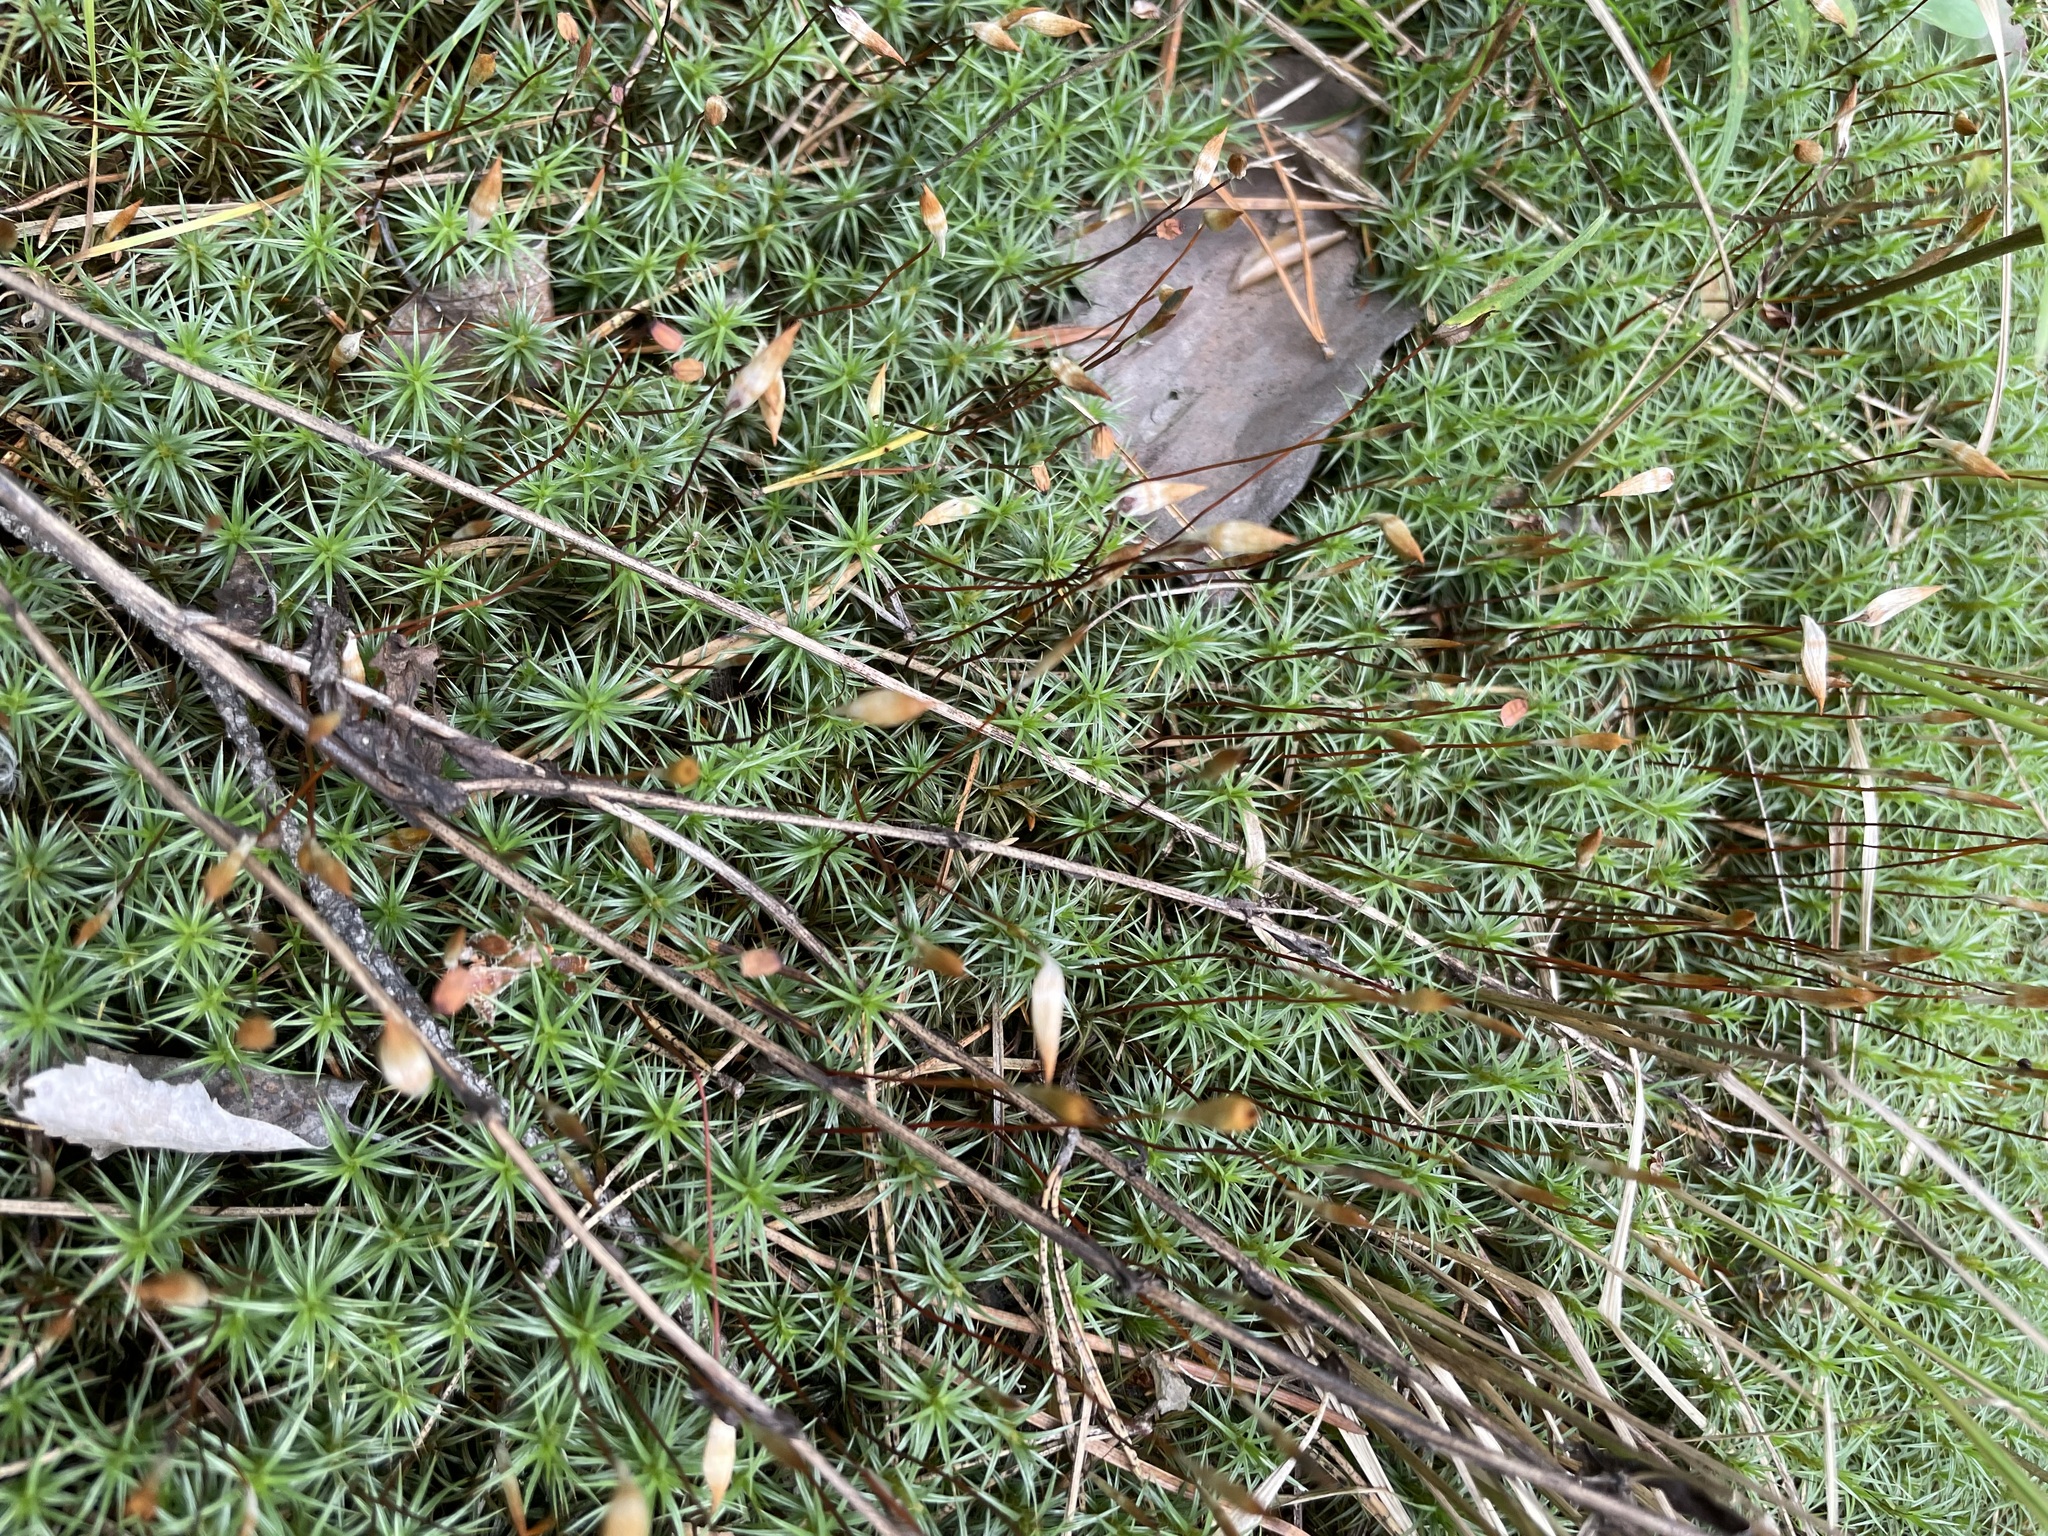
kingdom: Plantae
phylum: Bryophyta
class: Polytrichopsida
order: Polytrichales
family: Polytrichaceae
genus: Polytrichum
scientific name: Polytrichum juniperinum
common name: Juniper haircap moss
